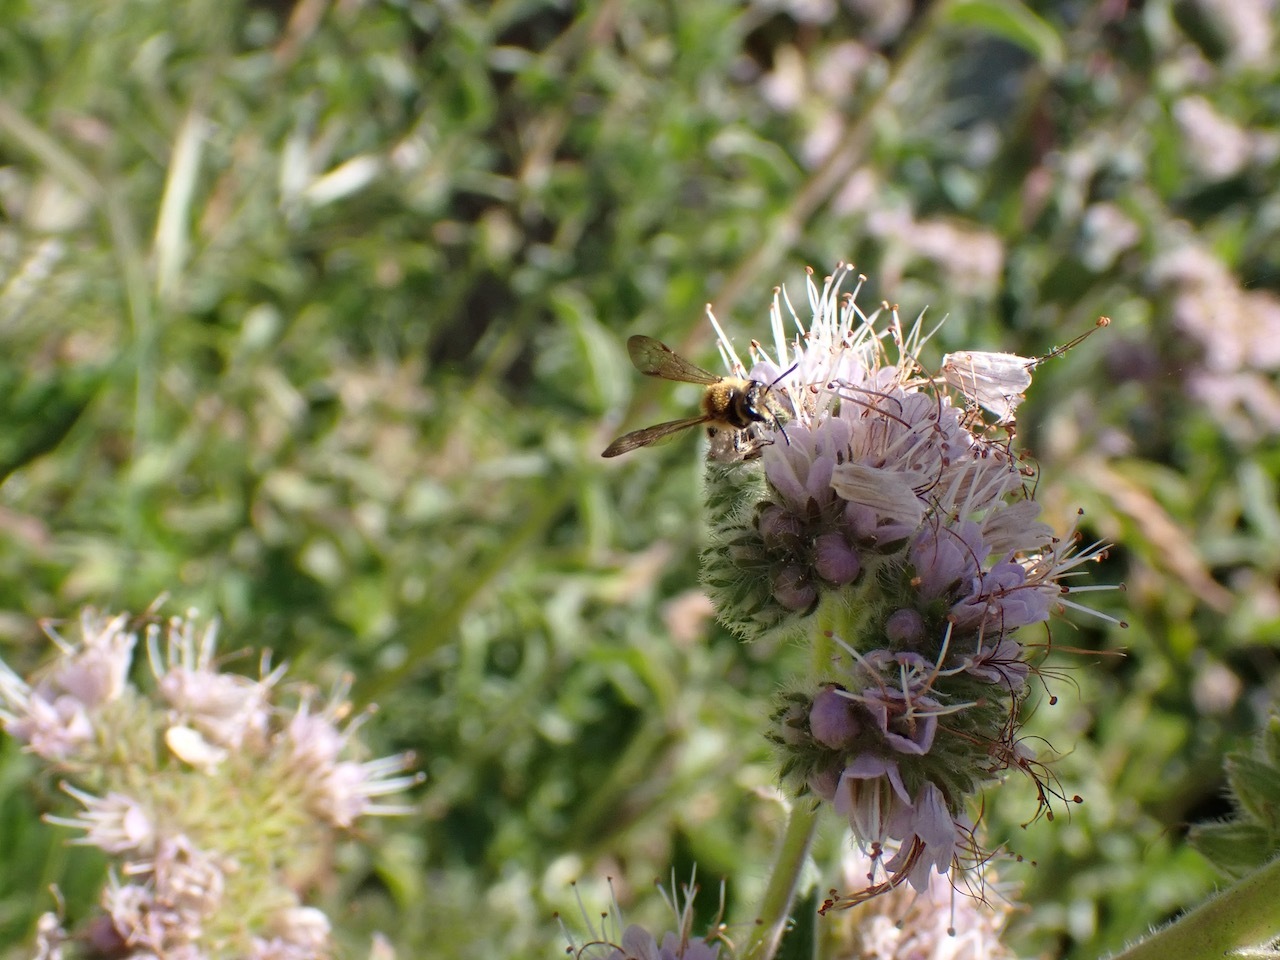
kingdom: Animalia
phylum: Arthropoda
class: Insecta
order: Hymenoptera
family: Andrenidae
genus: Andrena
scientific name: Andrena auricoma
